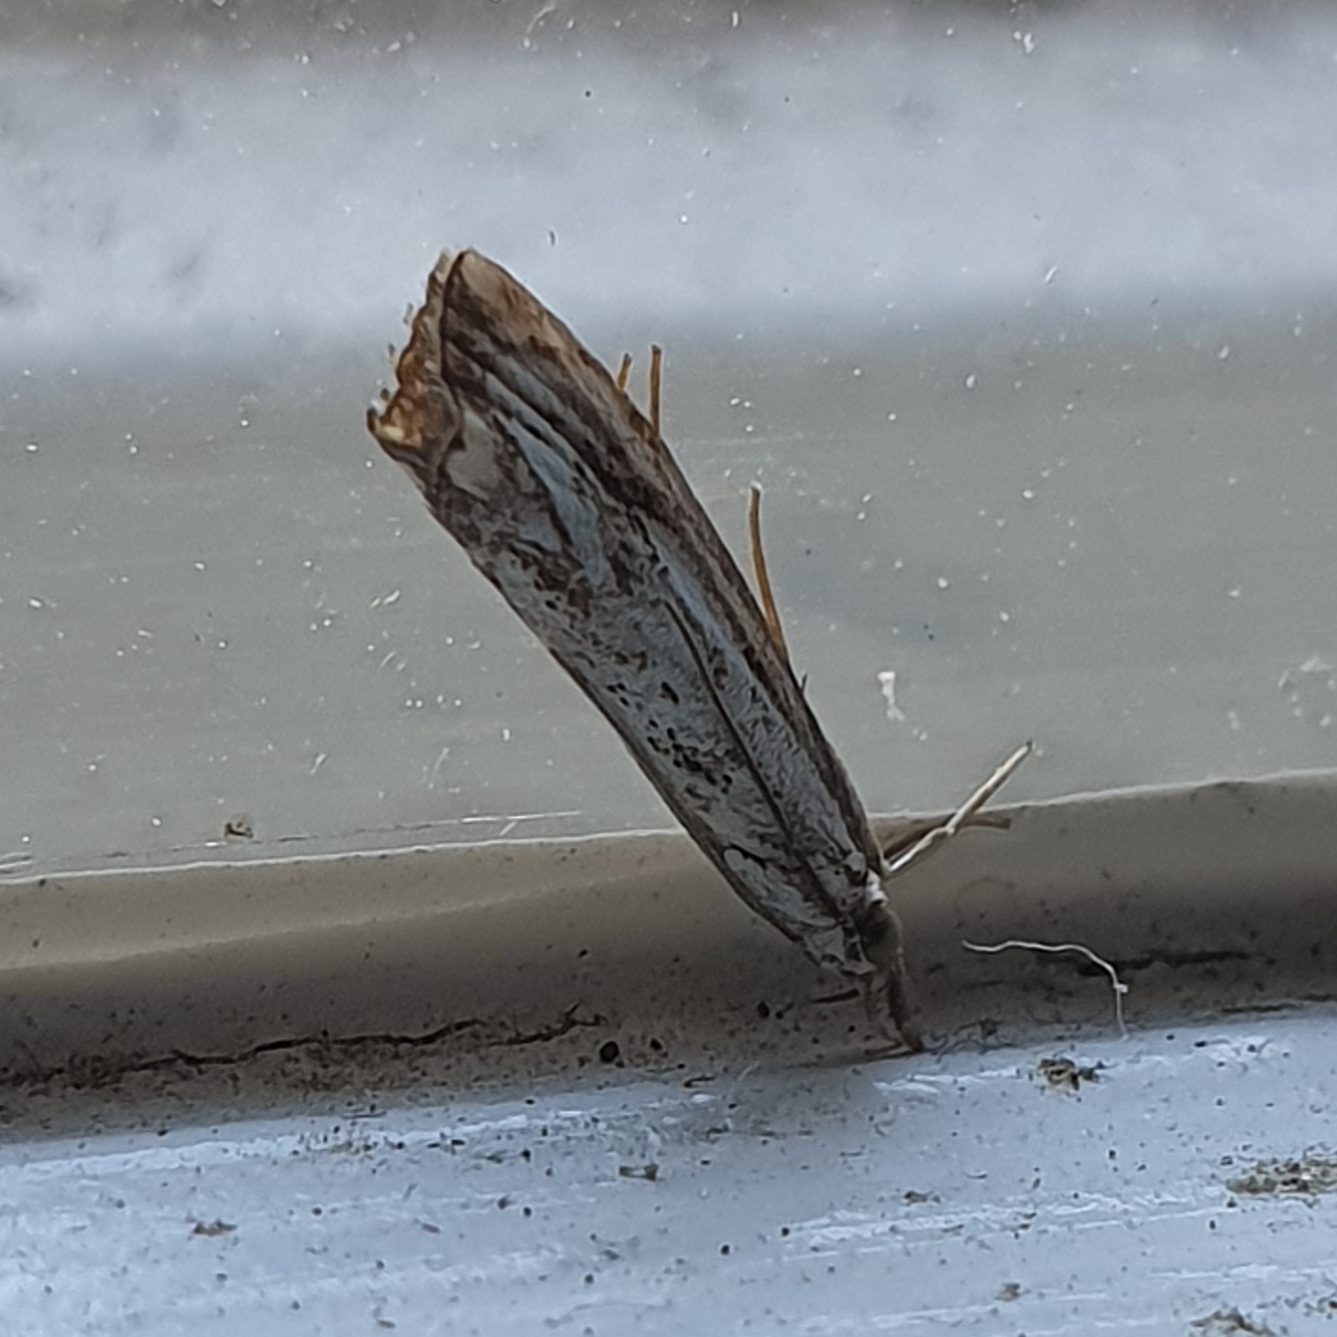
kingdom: Animalia
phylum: Arthropoda
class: Insecta
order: Lepidoptera
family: Crambidae
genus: Catoptria
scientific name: Catoptria falsella
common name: Chequered grass-veneer
